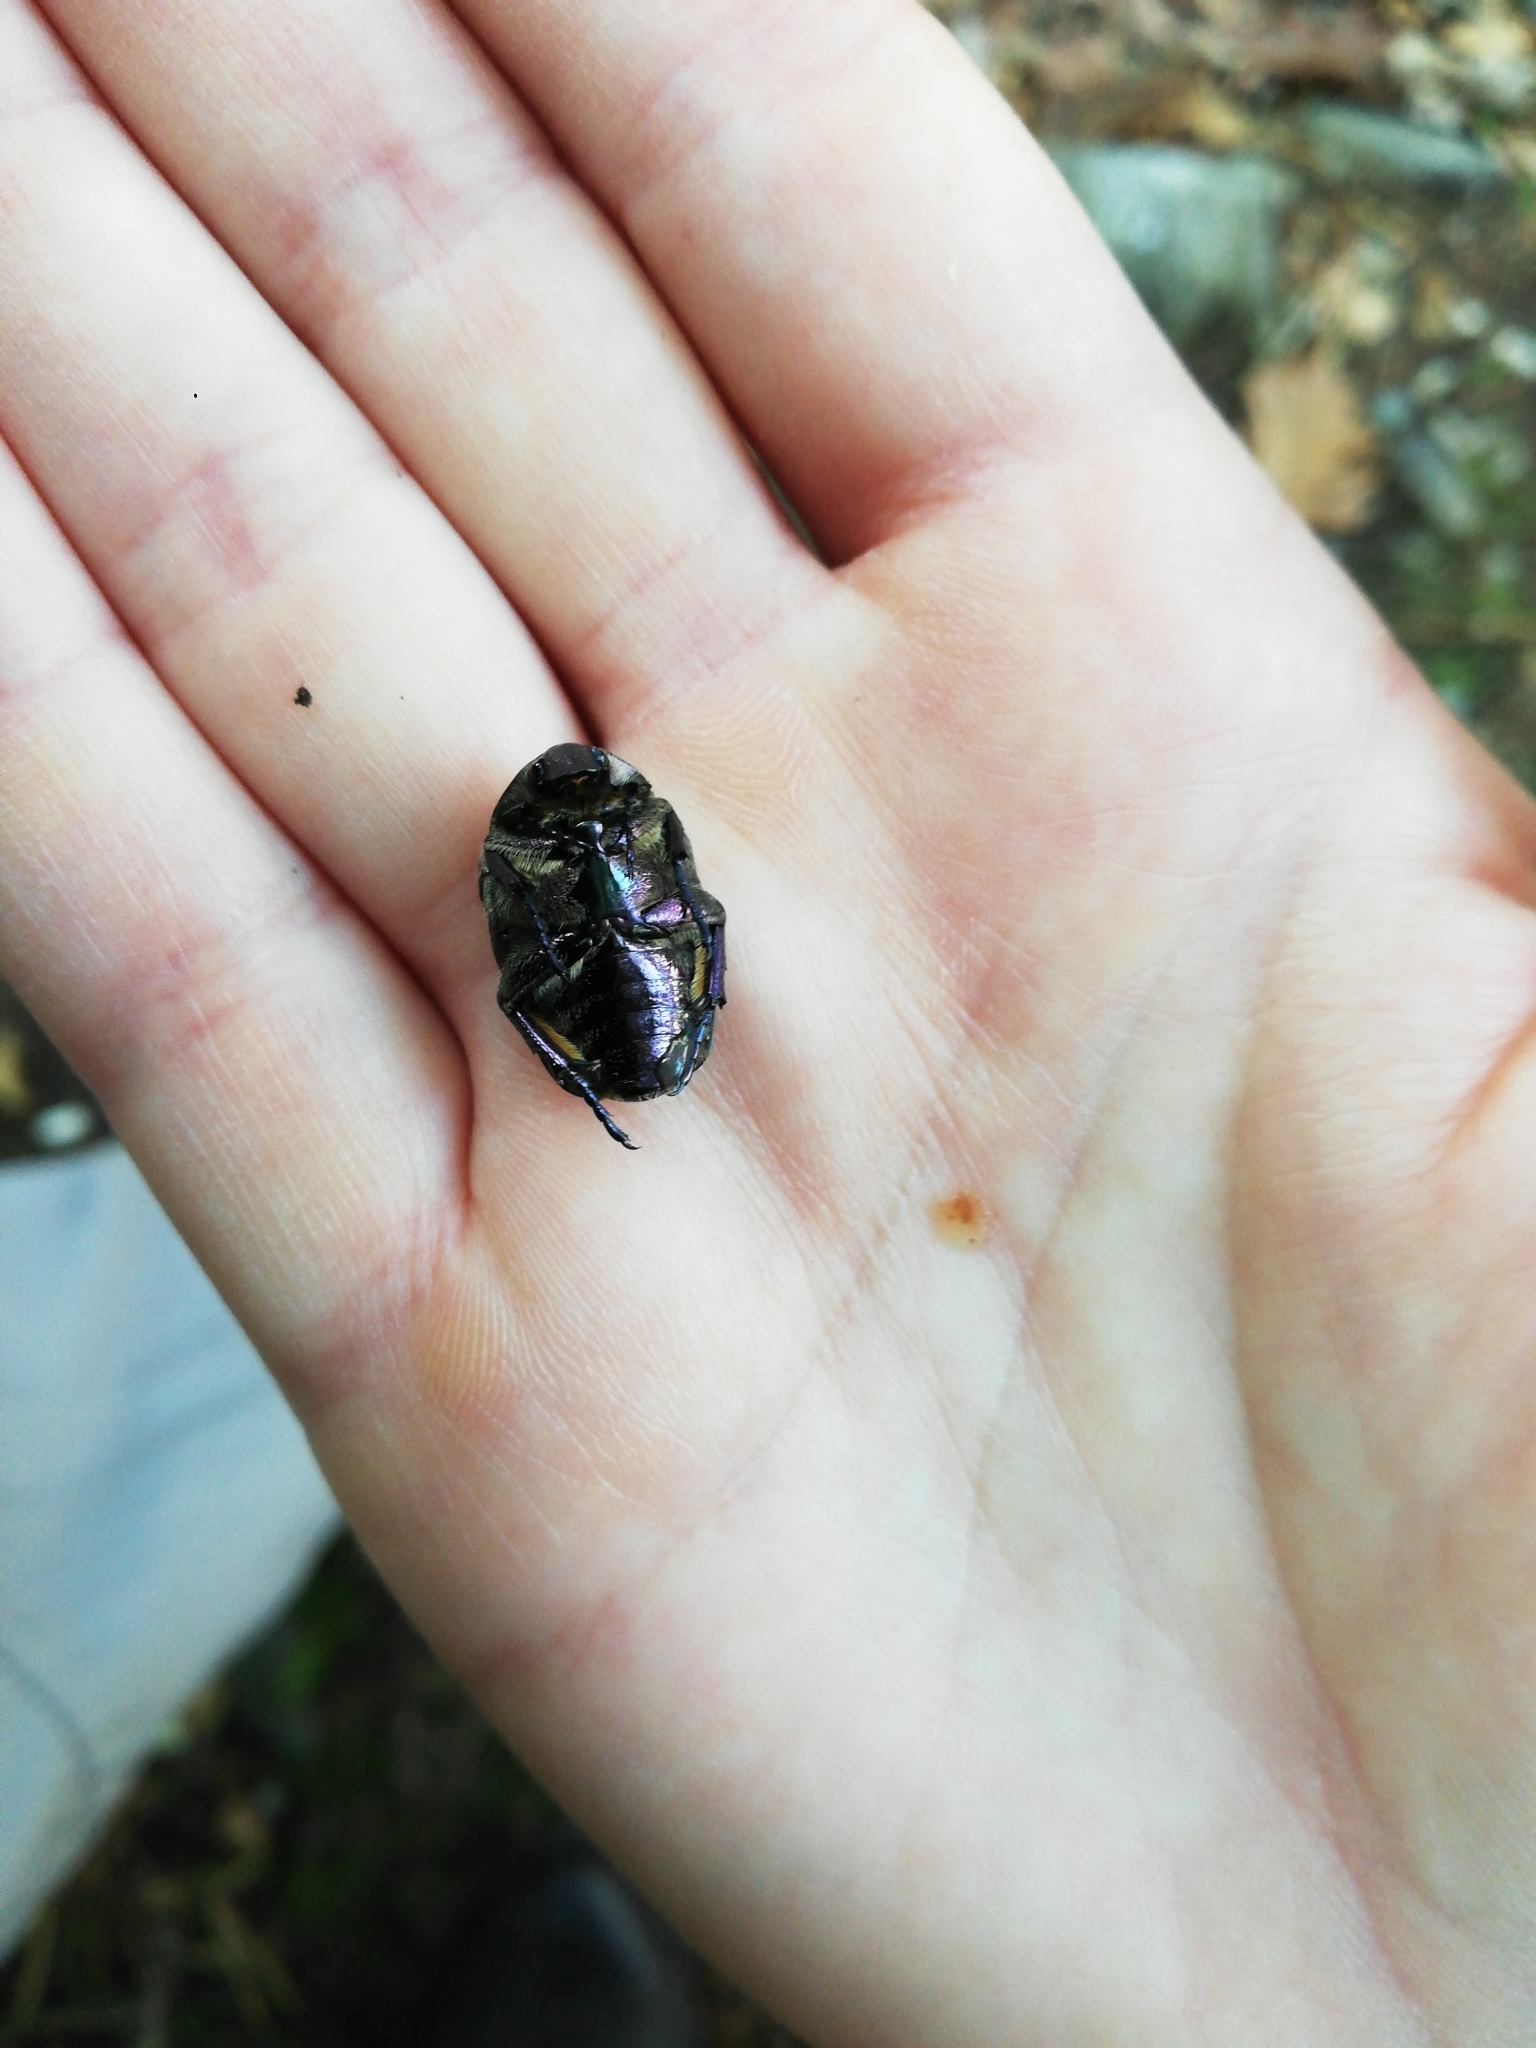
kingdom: Animalia
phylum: Arthropoda
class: Insecta
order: Coleoptera
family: Scarabaeidae
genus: Protaetia
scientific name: Protaetia cuprea
